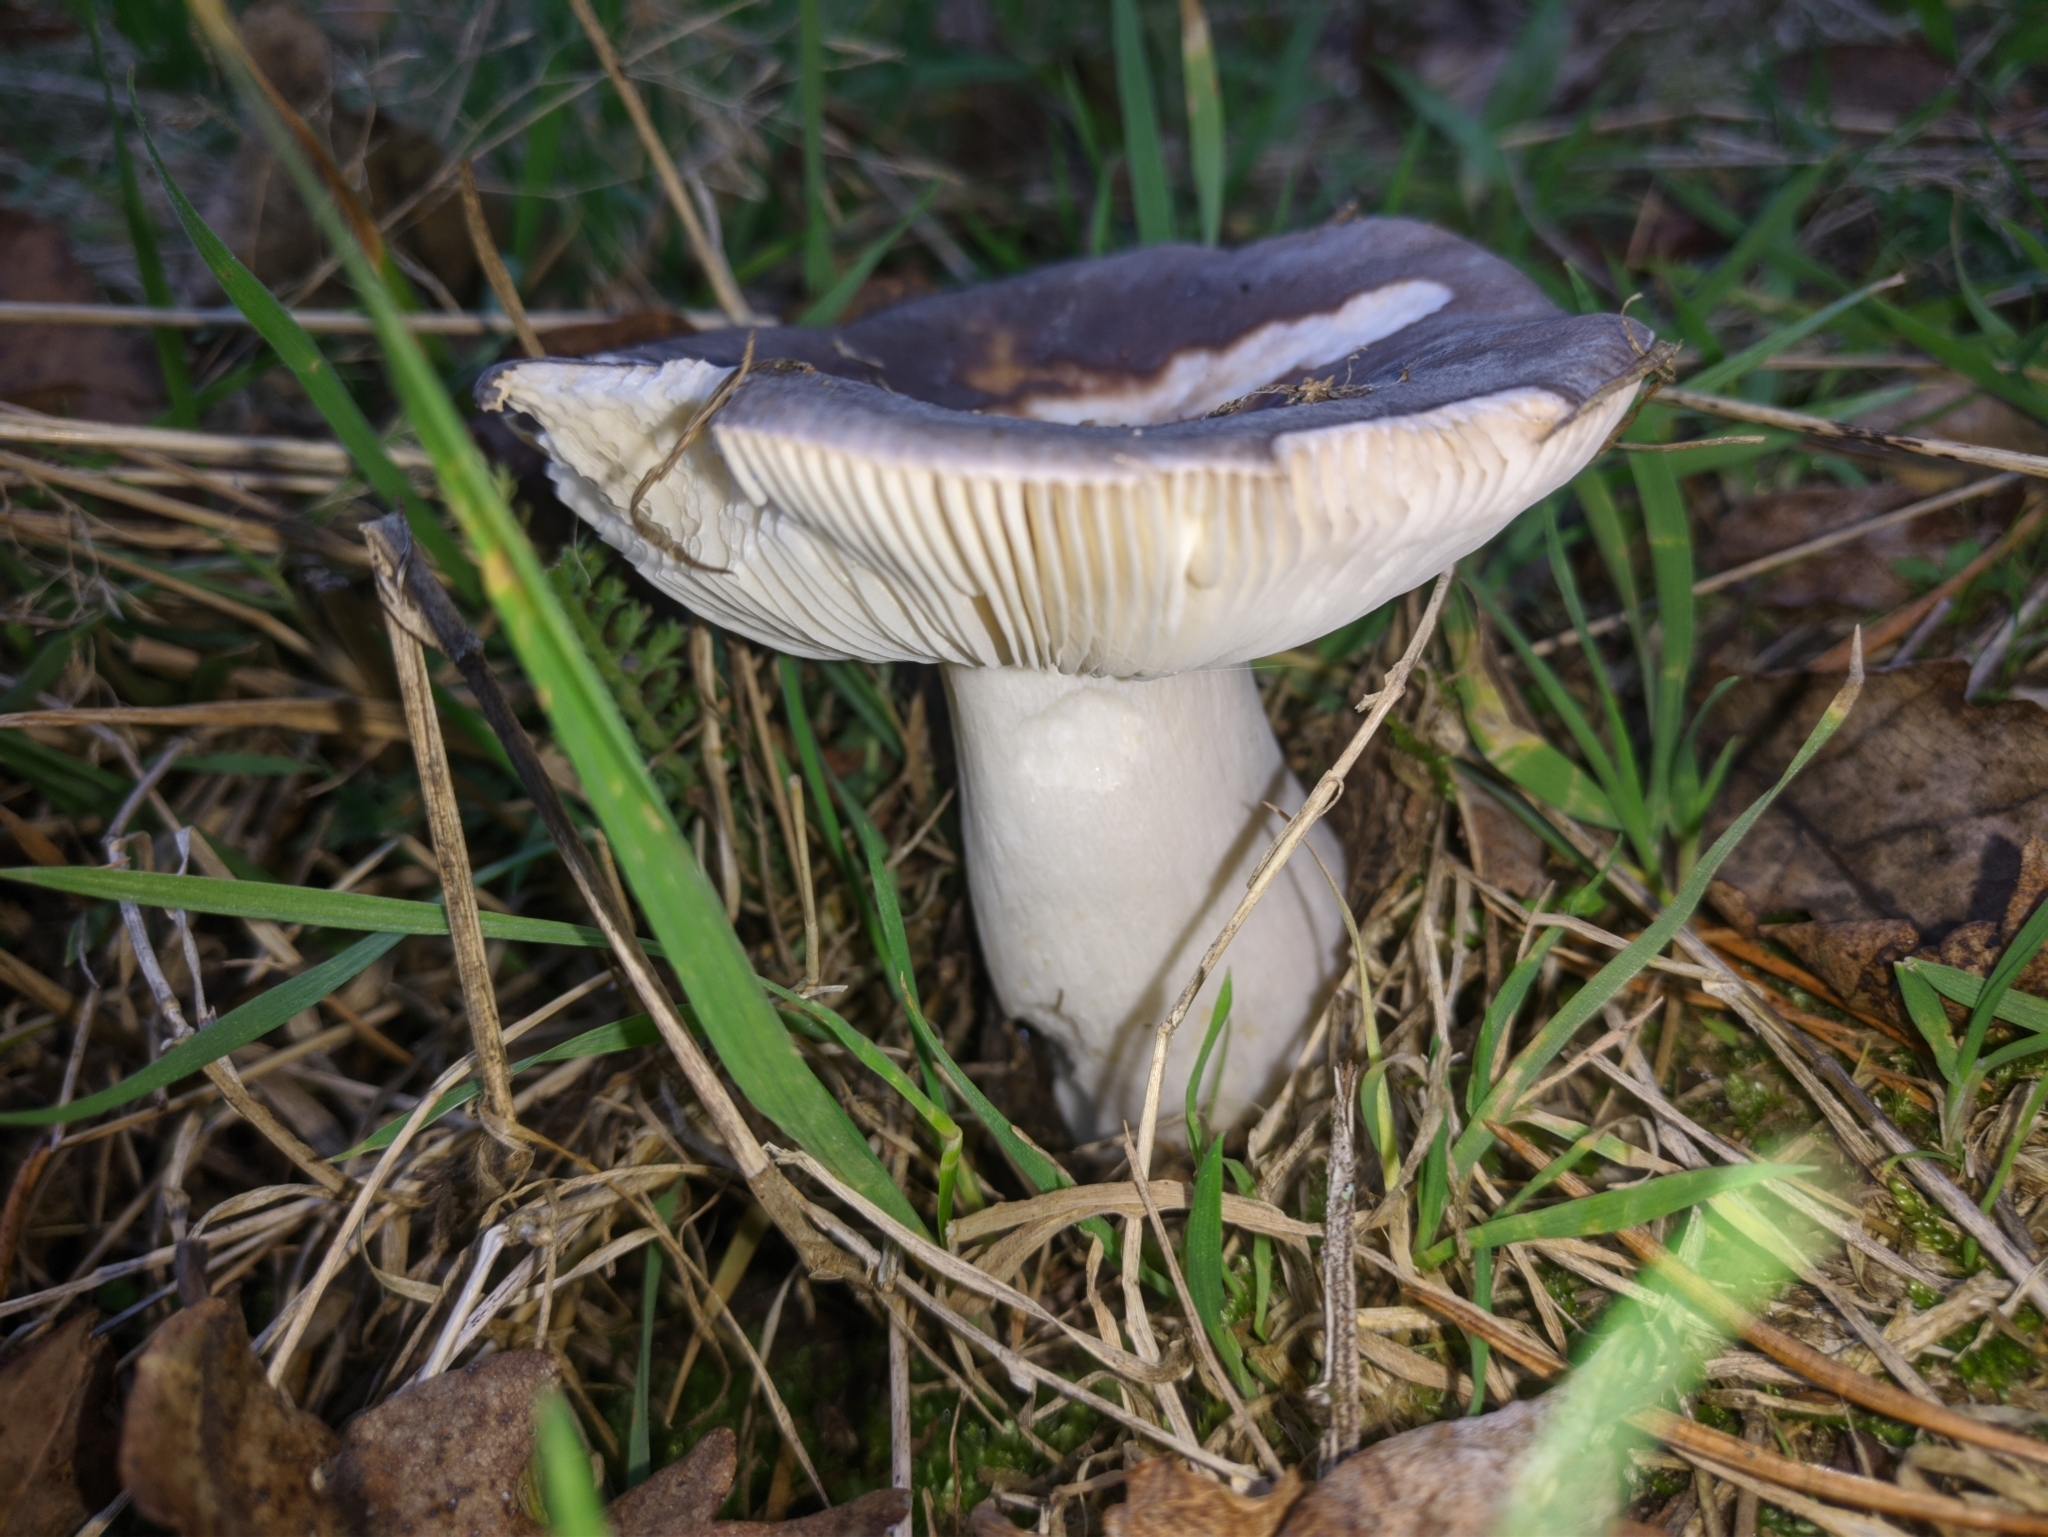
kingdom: Fungi
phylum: Basidiomycota
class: Agaricomycetes
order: Russulales
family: Russulaceae
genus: Russula
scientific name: Russula cyanoxantha
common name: Charcoal burner
